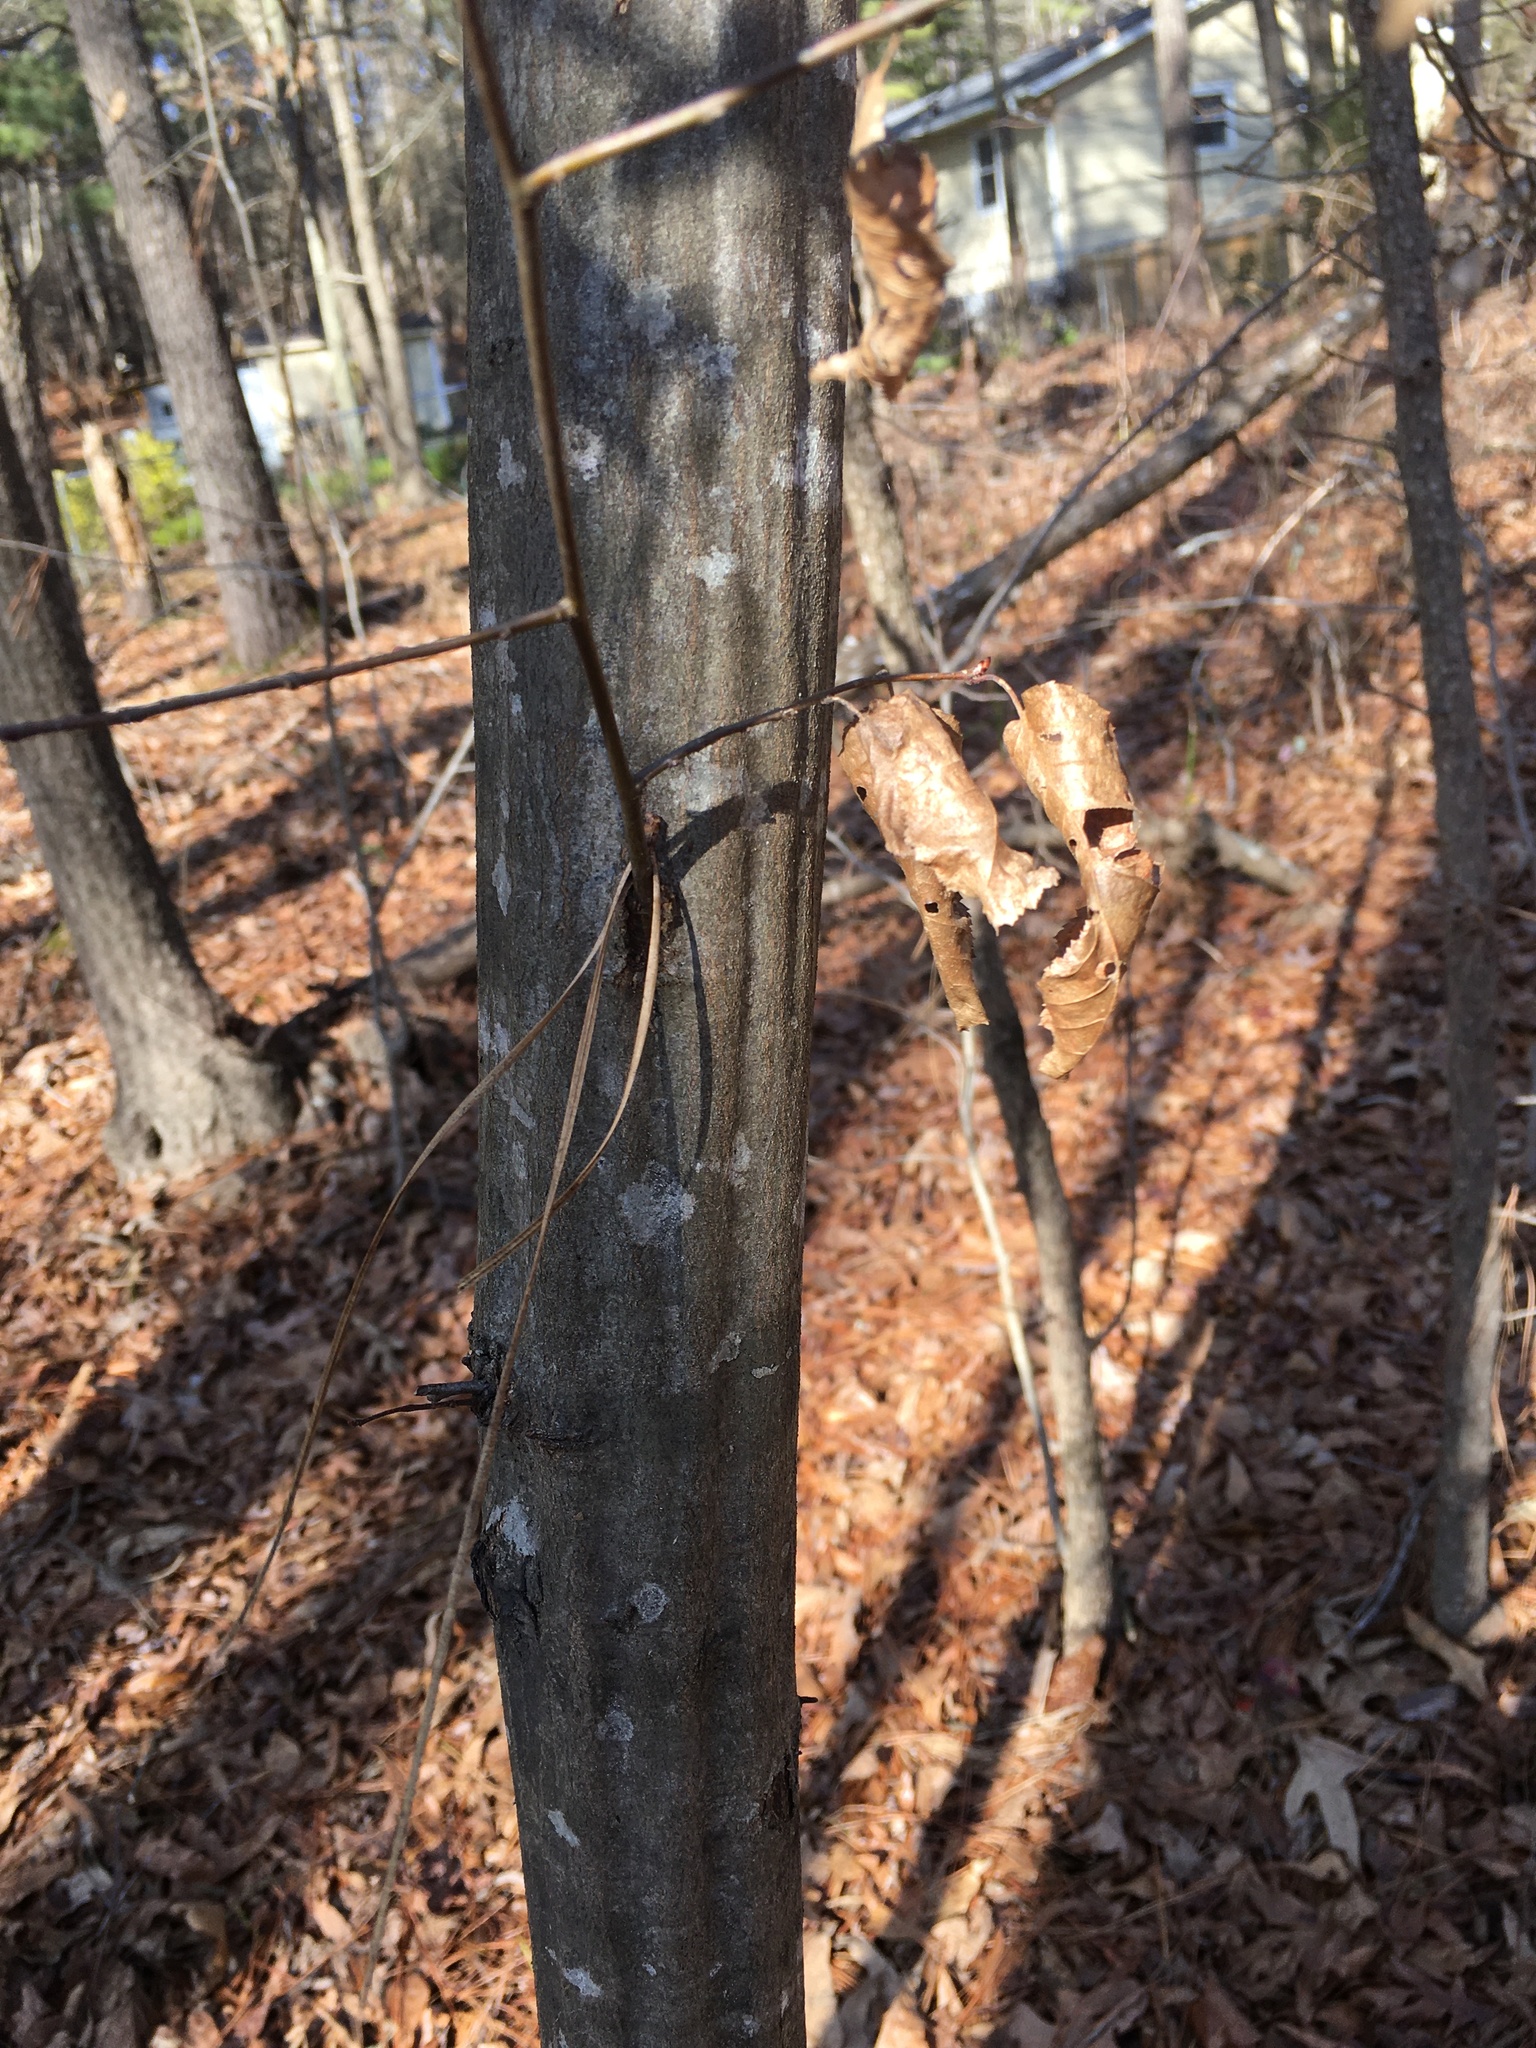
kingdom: Plantae
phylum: Tracheophyta
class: Magnoliopsida
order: Fagales
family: Betulaceae
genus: Carpinus
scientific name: Carpinus caroliniana
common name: American hornbeam
